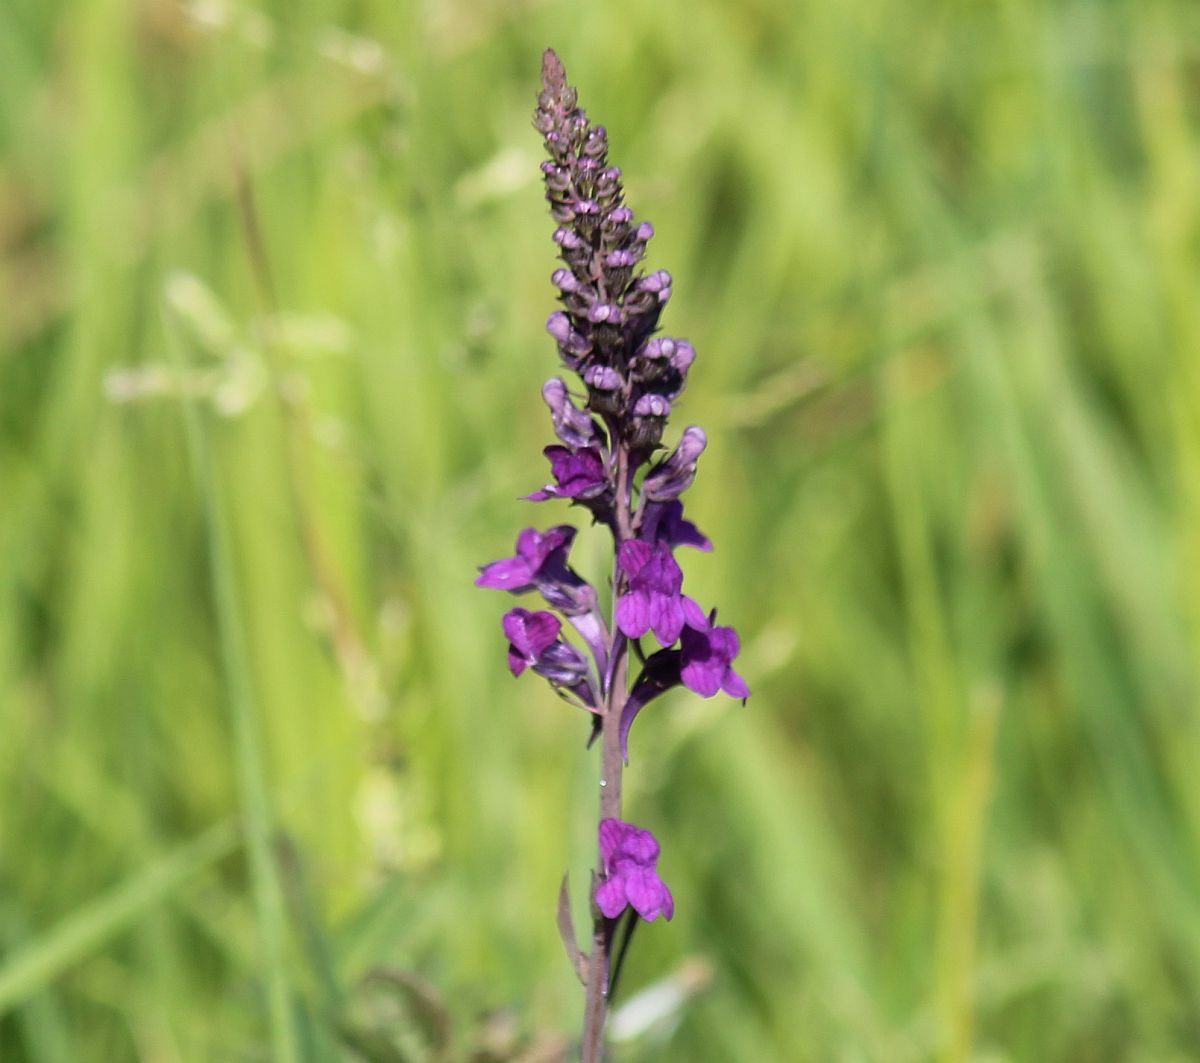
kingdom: Plantae
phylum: Tracheophyta
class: Magnoliopsida
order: Lamiales
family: Plantaginaceae
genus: Linaria
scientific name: Linaria purpurea
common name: Purple toadflax
